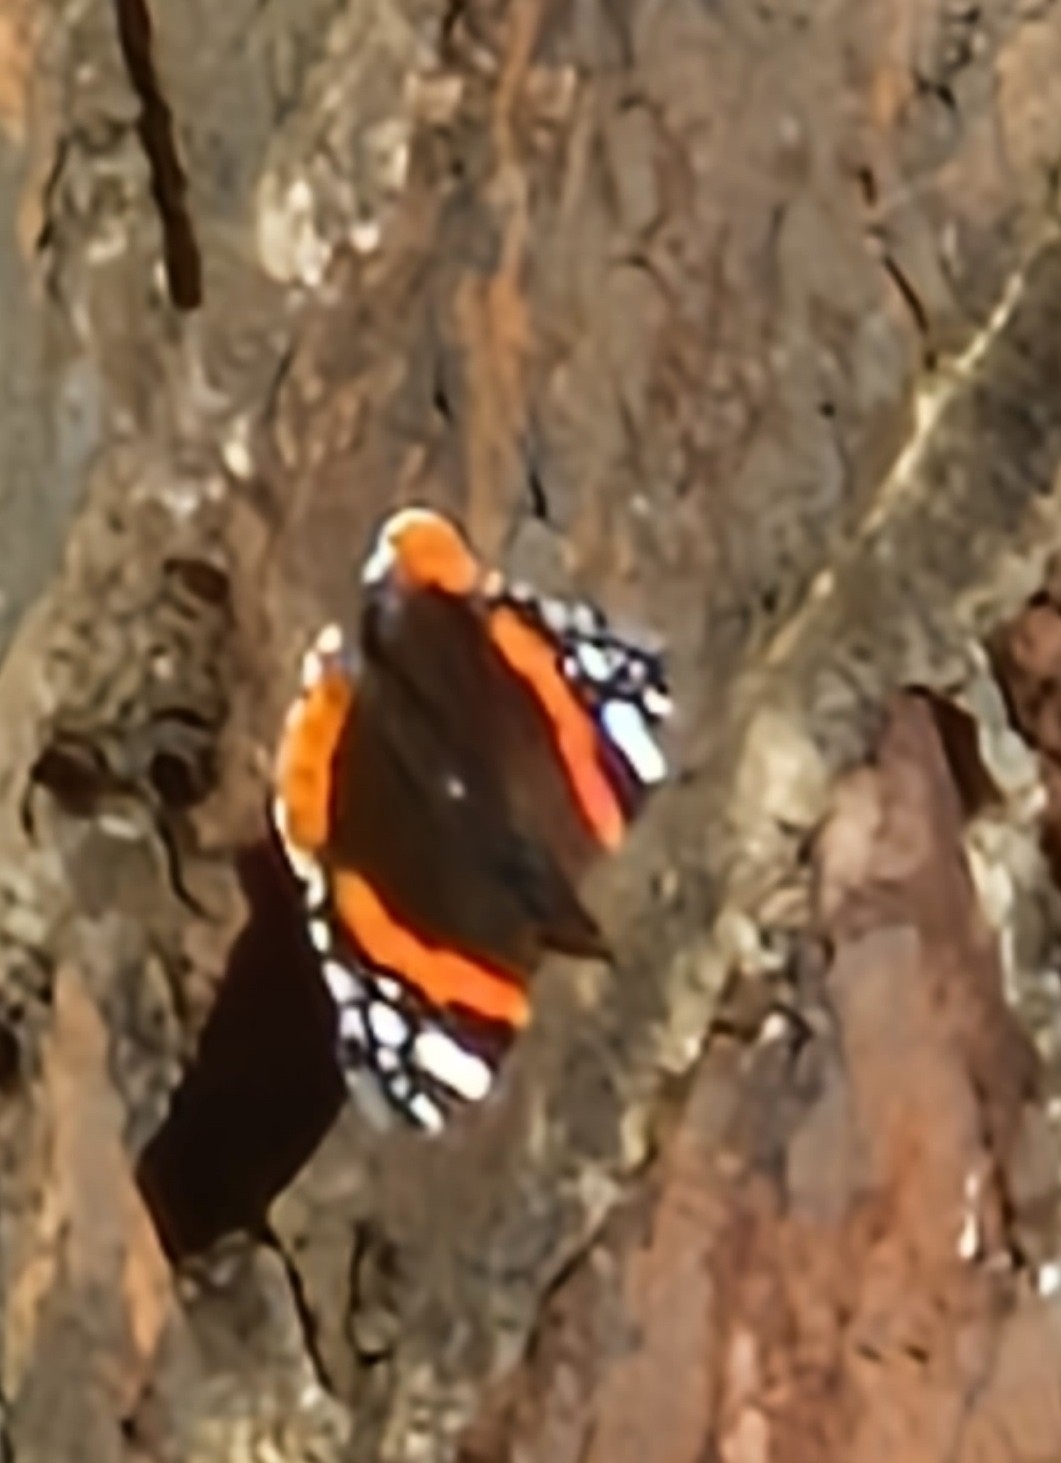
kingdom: Animalia
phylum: Arthropoda
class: Insecta
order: Lepidoptera
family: Nymphalidae
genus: Vanessa
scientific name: Vanessa atalanta
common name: Red admiral
